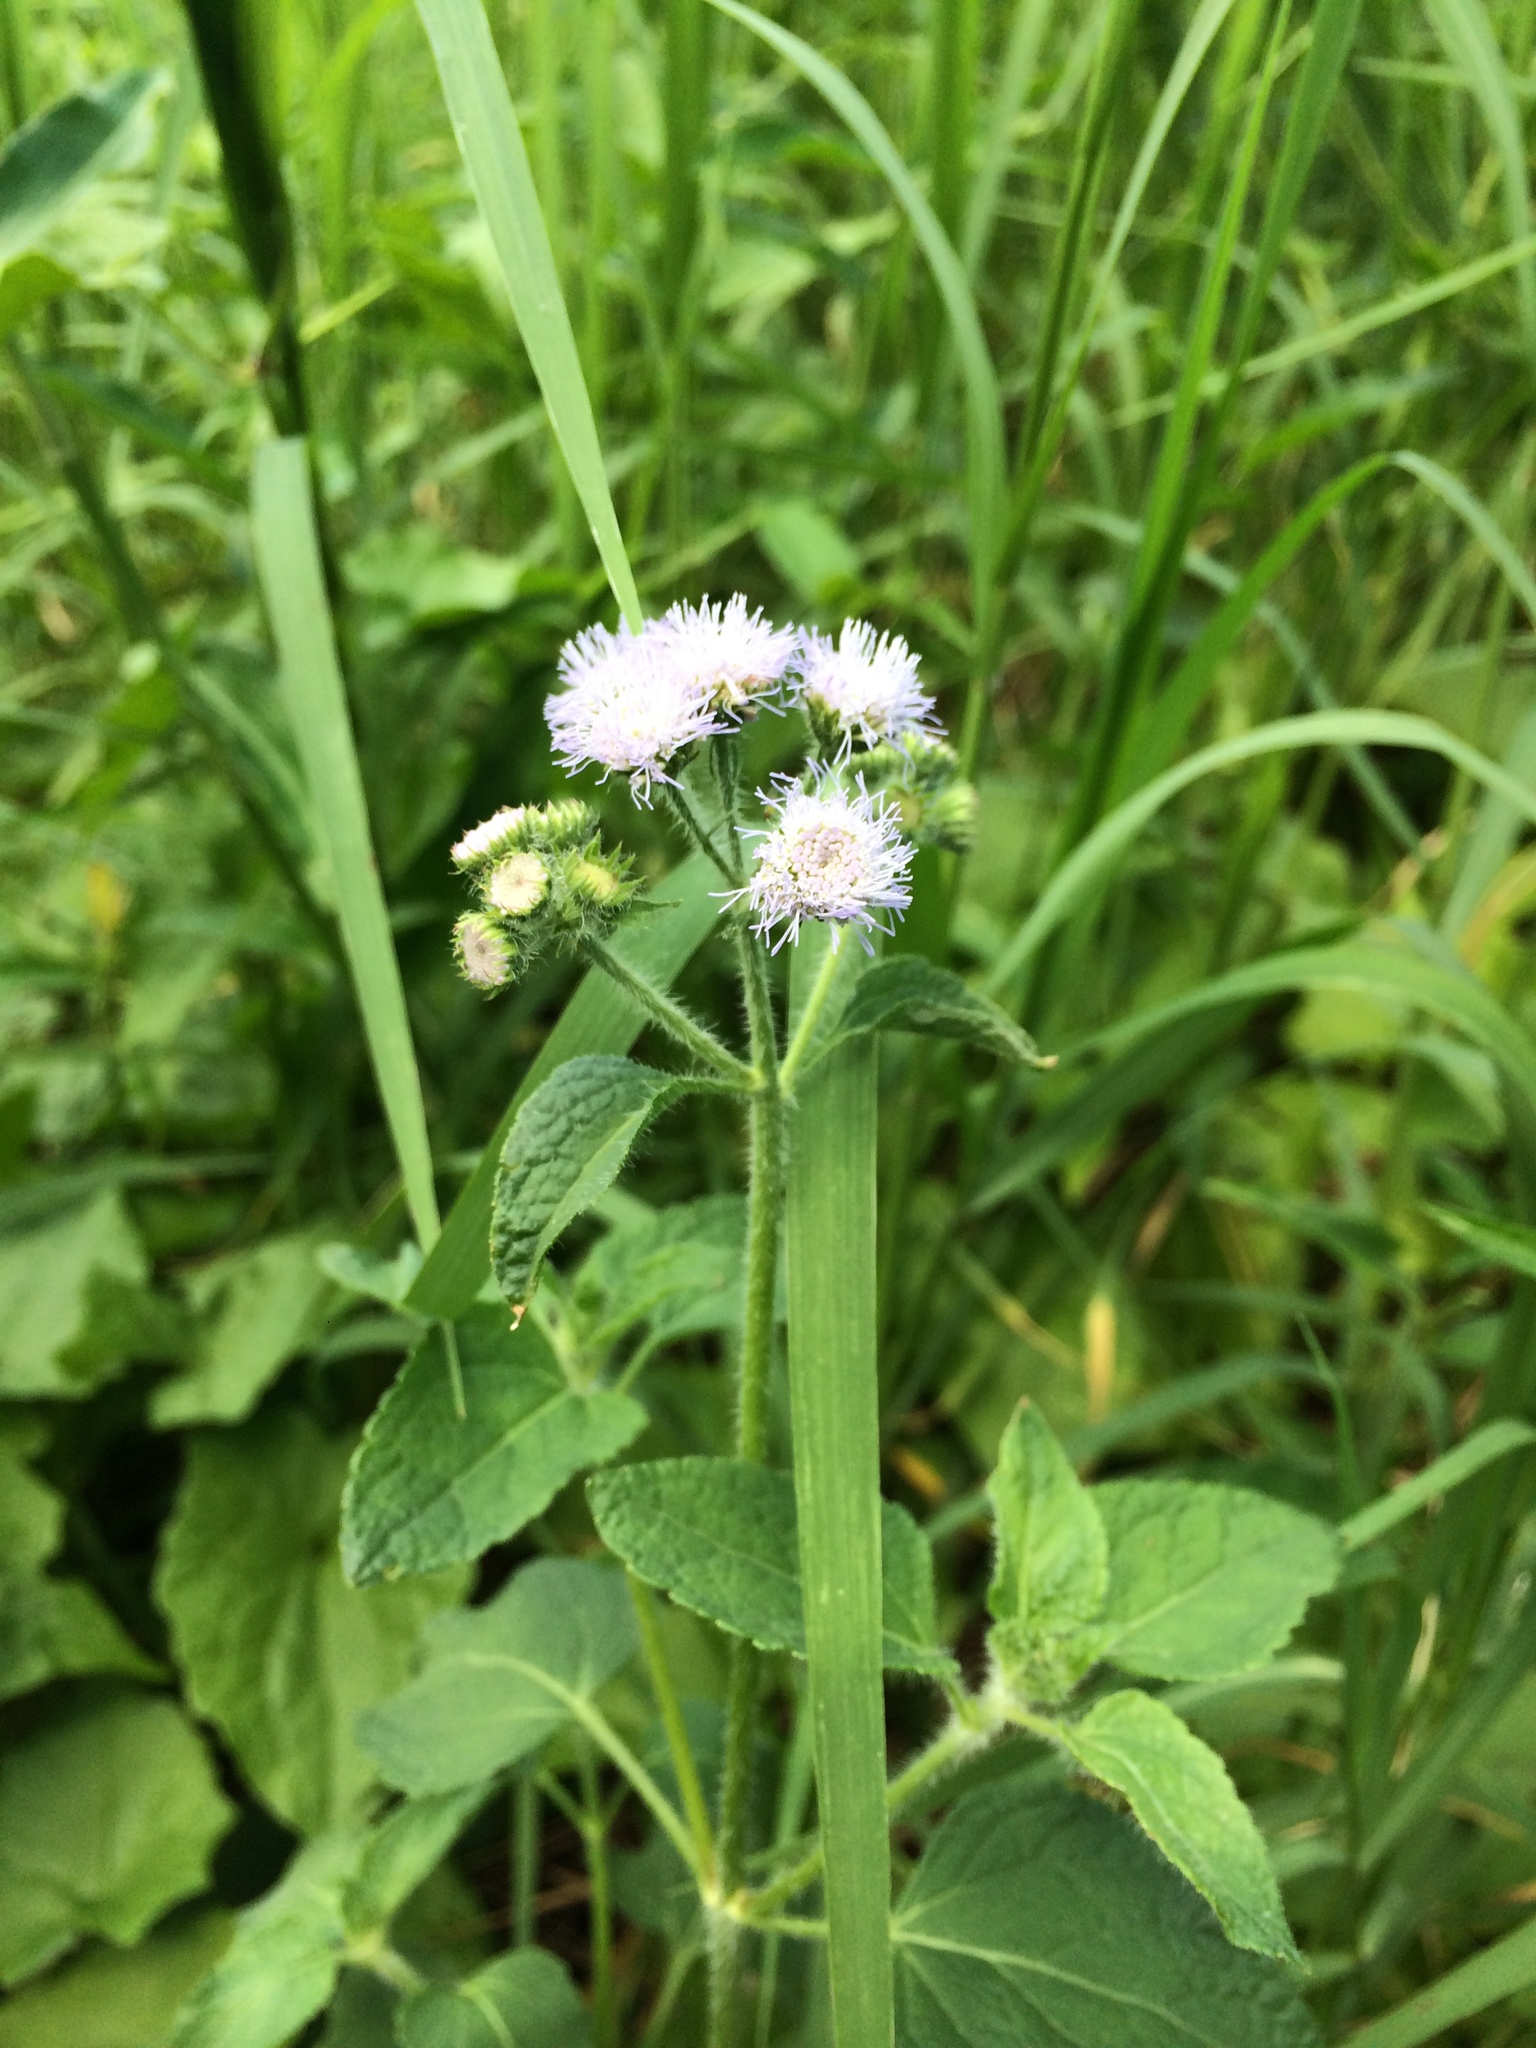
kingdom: Plantae
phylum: Tracheophyta
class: Magnoliopsida
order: Asterales
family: Asteraceae
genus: Ageratum
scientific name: Ageratum conyzoides
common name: Tropical whiteweed
